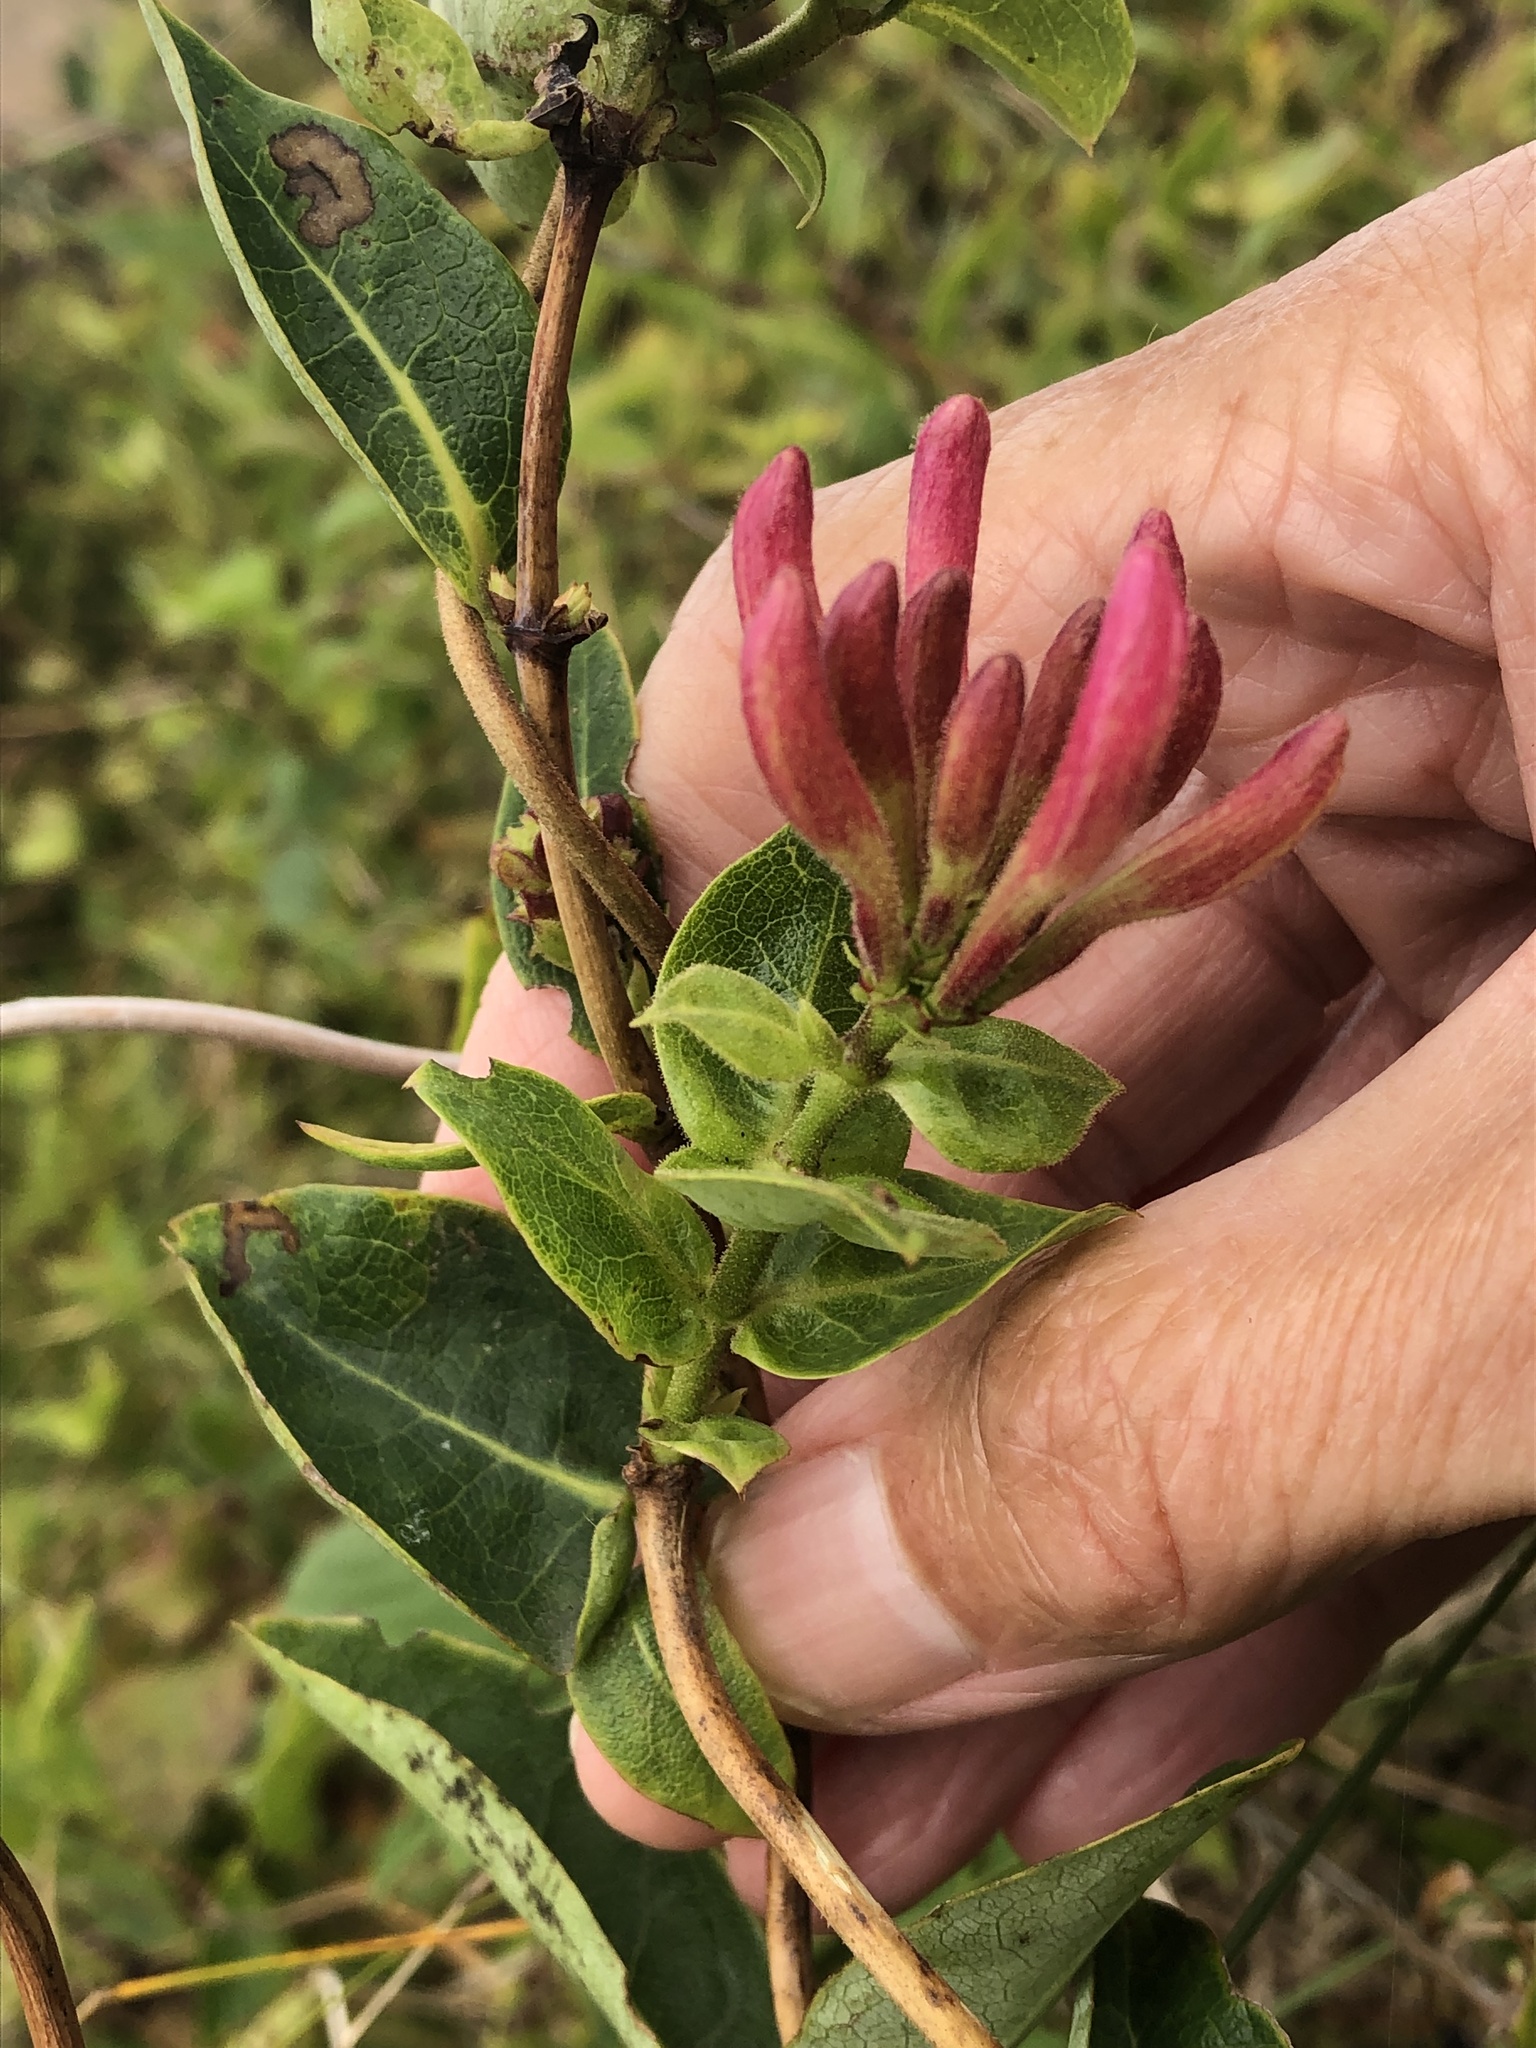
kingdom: Plantae
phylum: Tracheophyta
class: Magnoliopsida
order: Dipsacales
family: Caprifoliaceae
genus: Lonicera
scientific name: Lonicera periclymenum
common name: European honeysuckle
